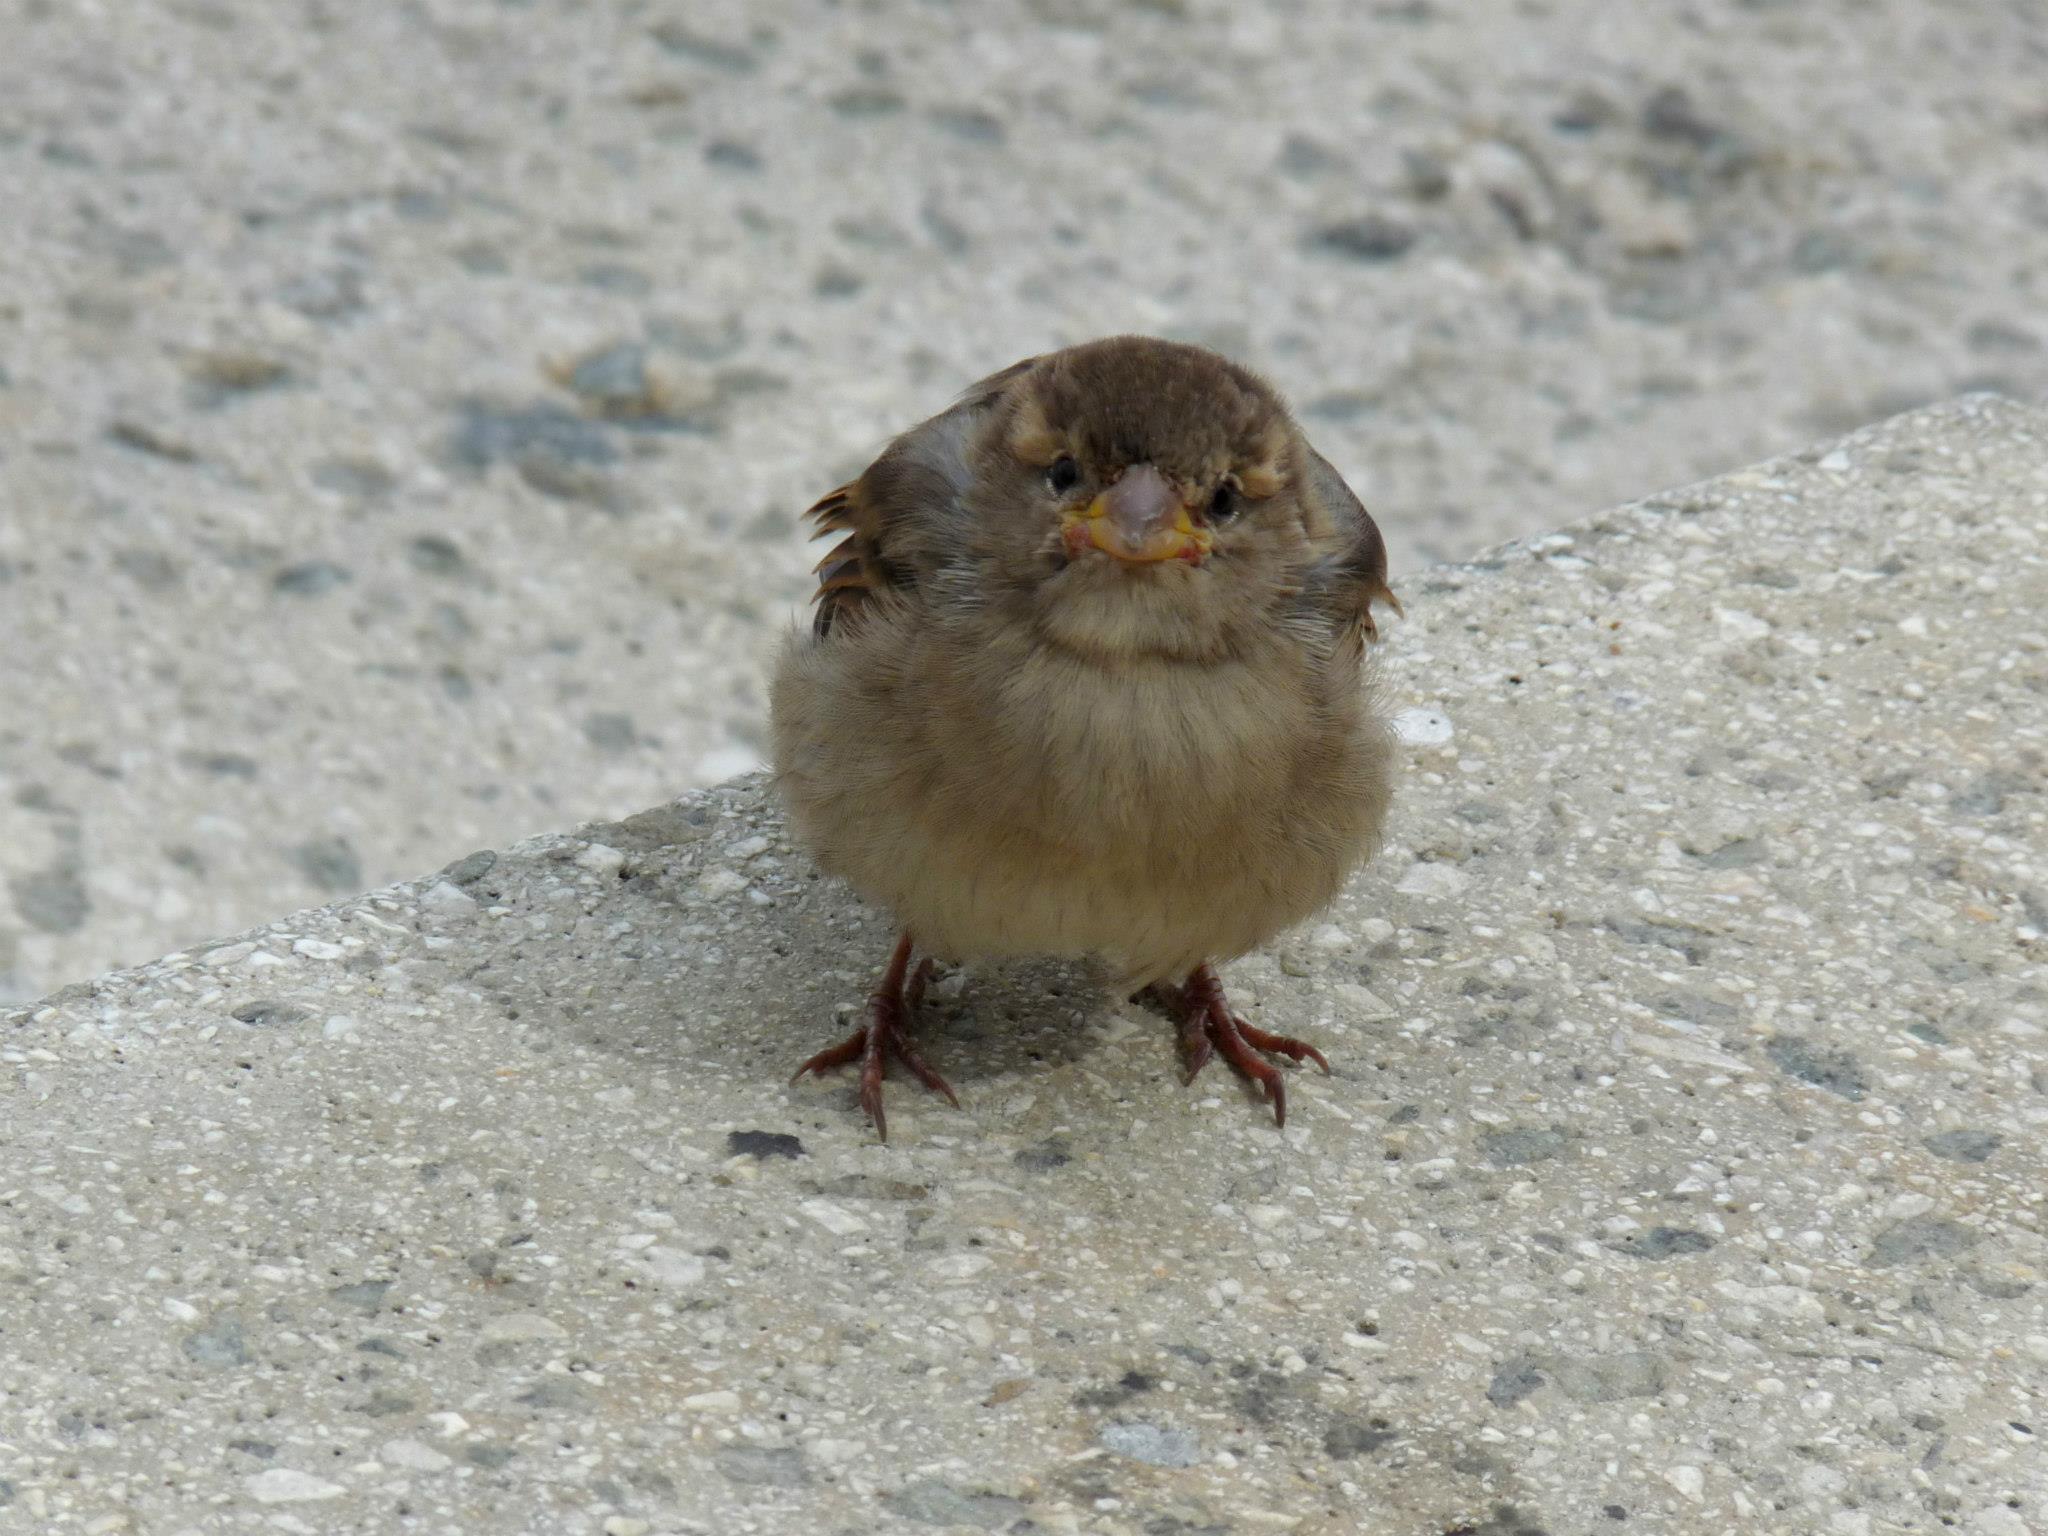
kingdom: Animalia
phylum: Chordata
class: Aves
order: Passeriformes
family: Passeridae
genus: Passer
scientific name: Passer domesticus
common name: House sparrow
